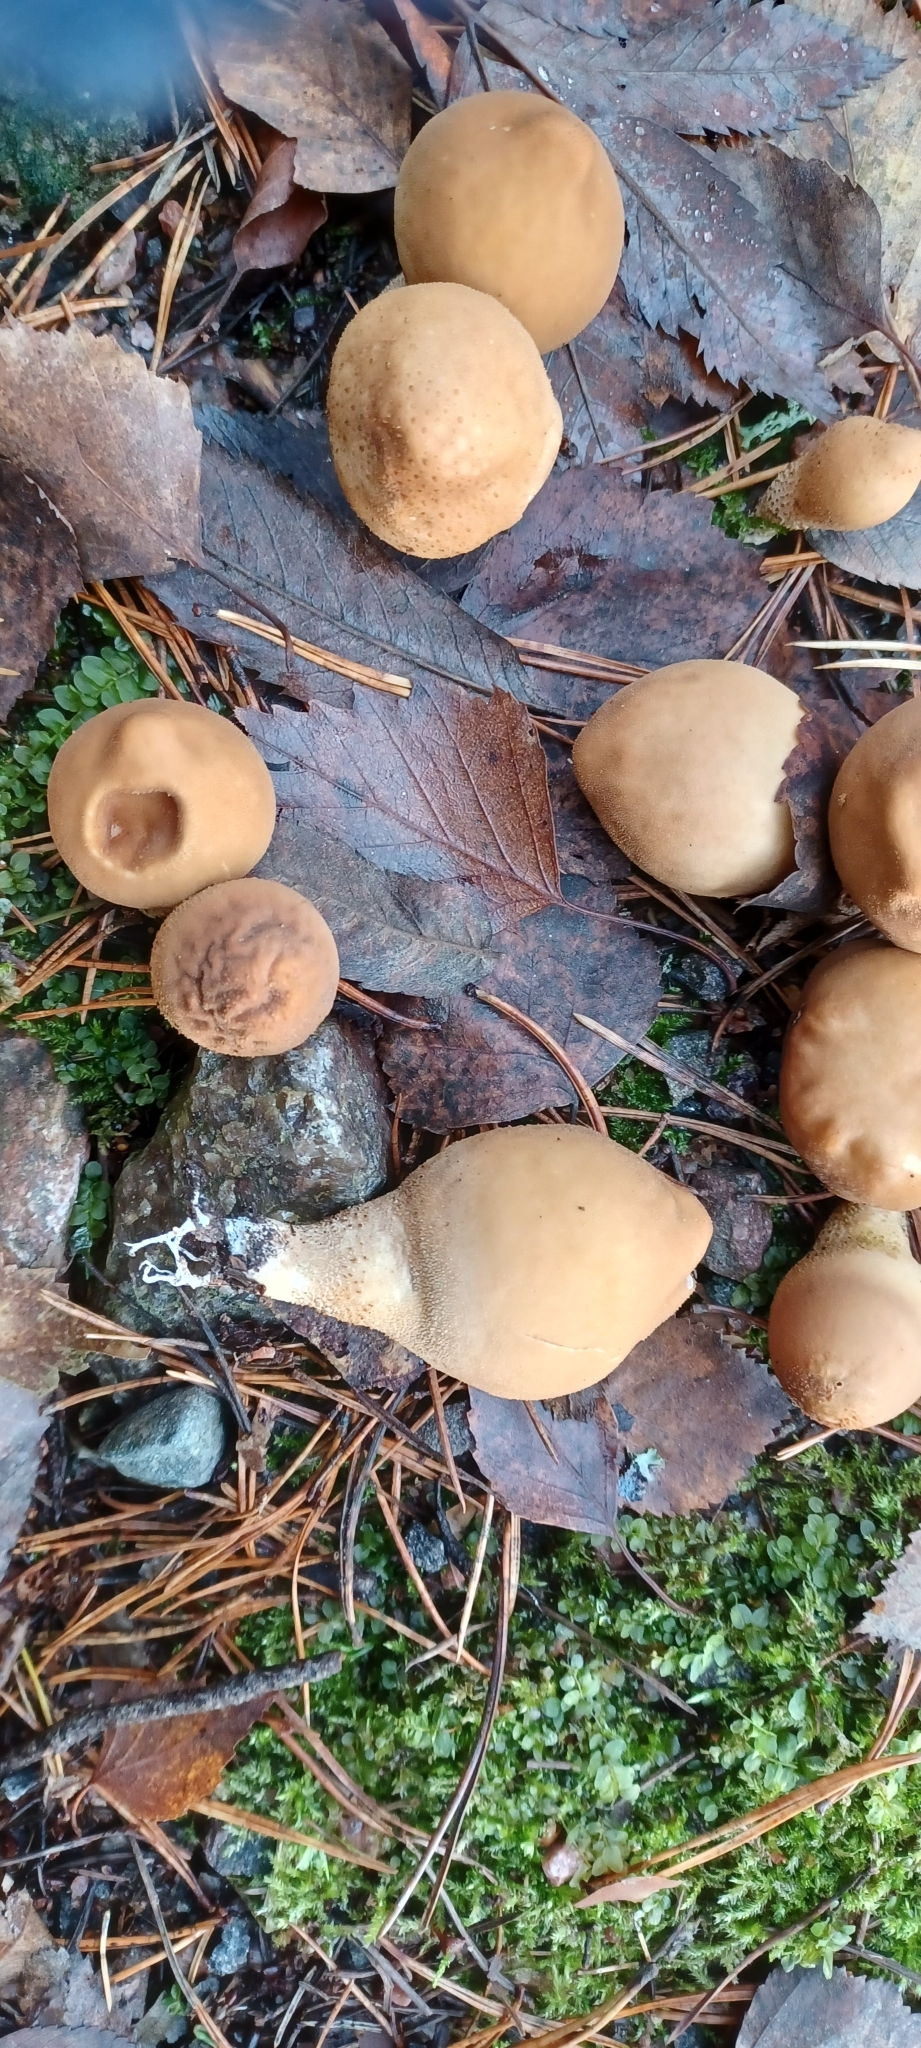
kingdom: Fungi
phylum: Basidiomycota
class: Agaricomycetes
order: Agaricales
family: Lycoperdaceae
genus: Apioperdon
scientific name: Apioperdon pyriforme
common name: Pear-shaped puffball
